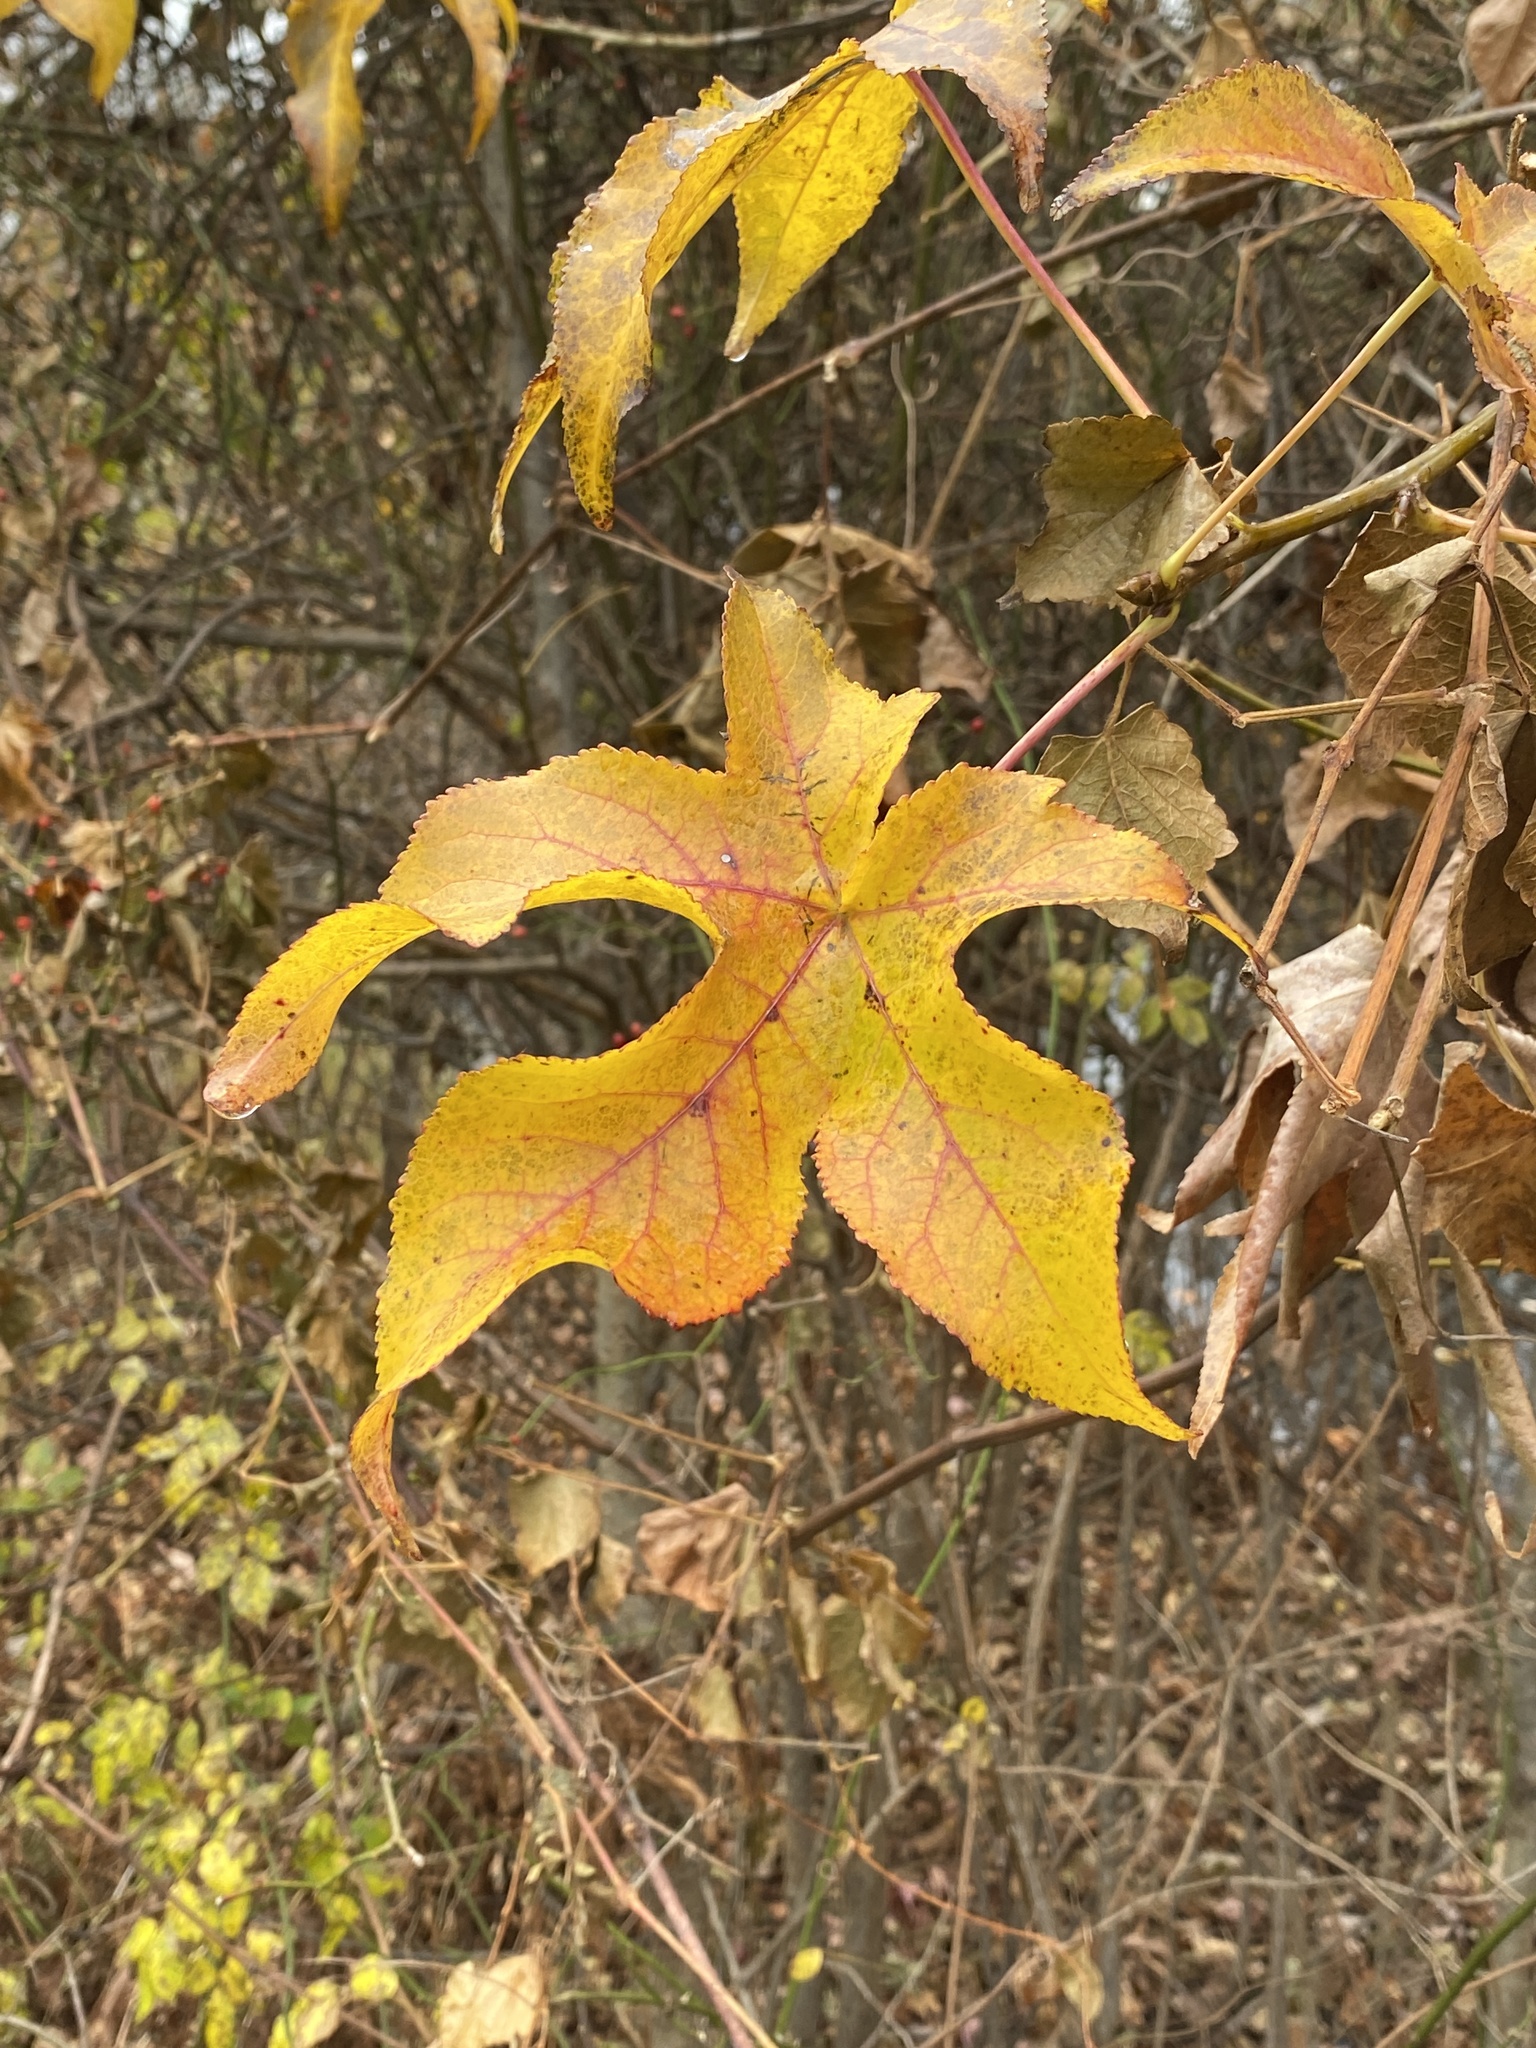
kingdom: Plantae
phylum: Tracheophyta
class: Magnoliopsida
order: Saxifragales
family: Altingiaceae
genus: Liquidambar
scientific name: Liquidambar styraciflua
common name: Sweet gum
